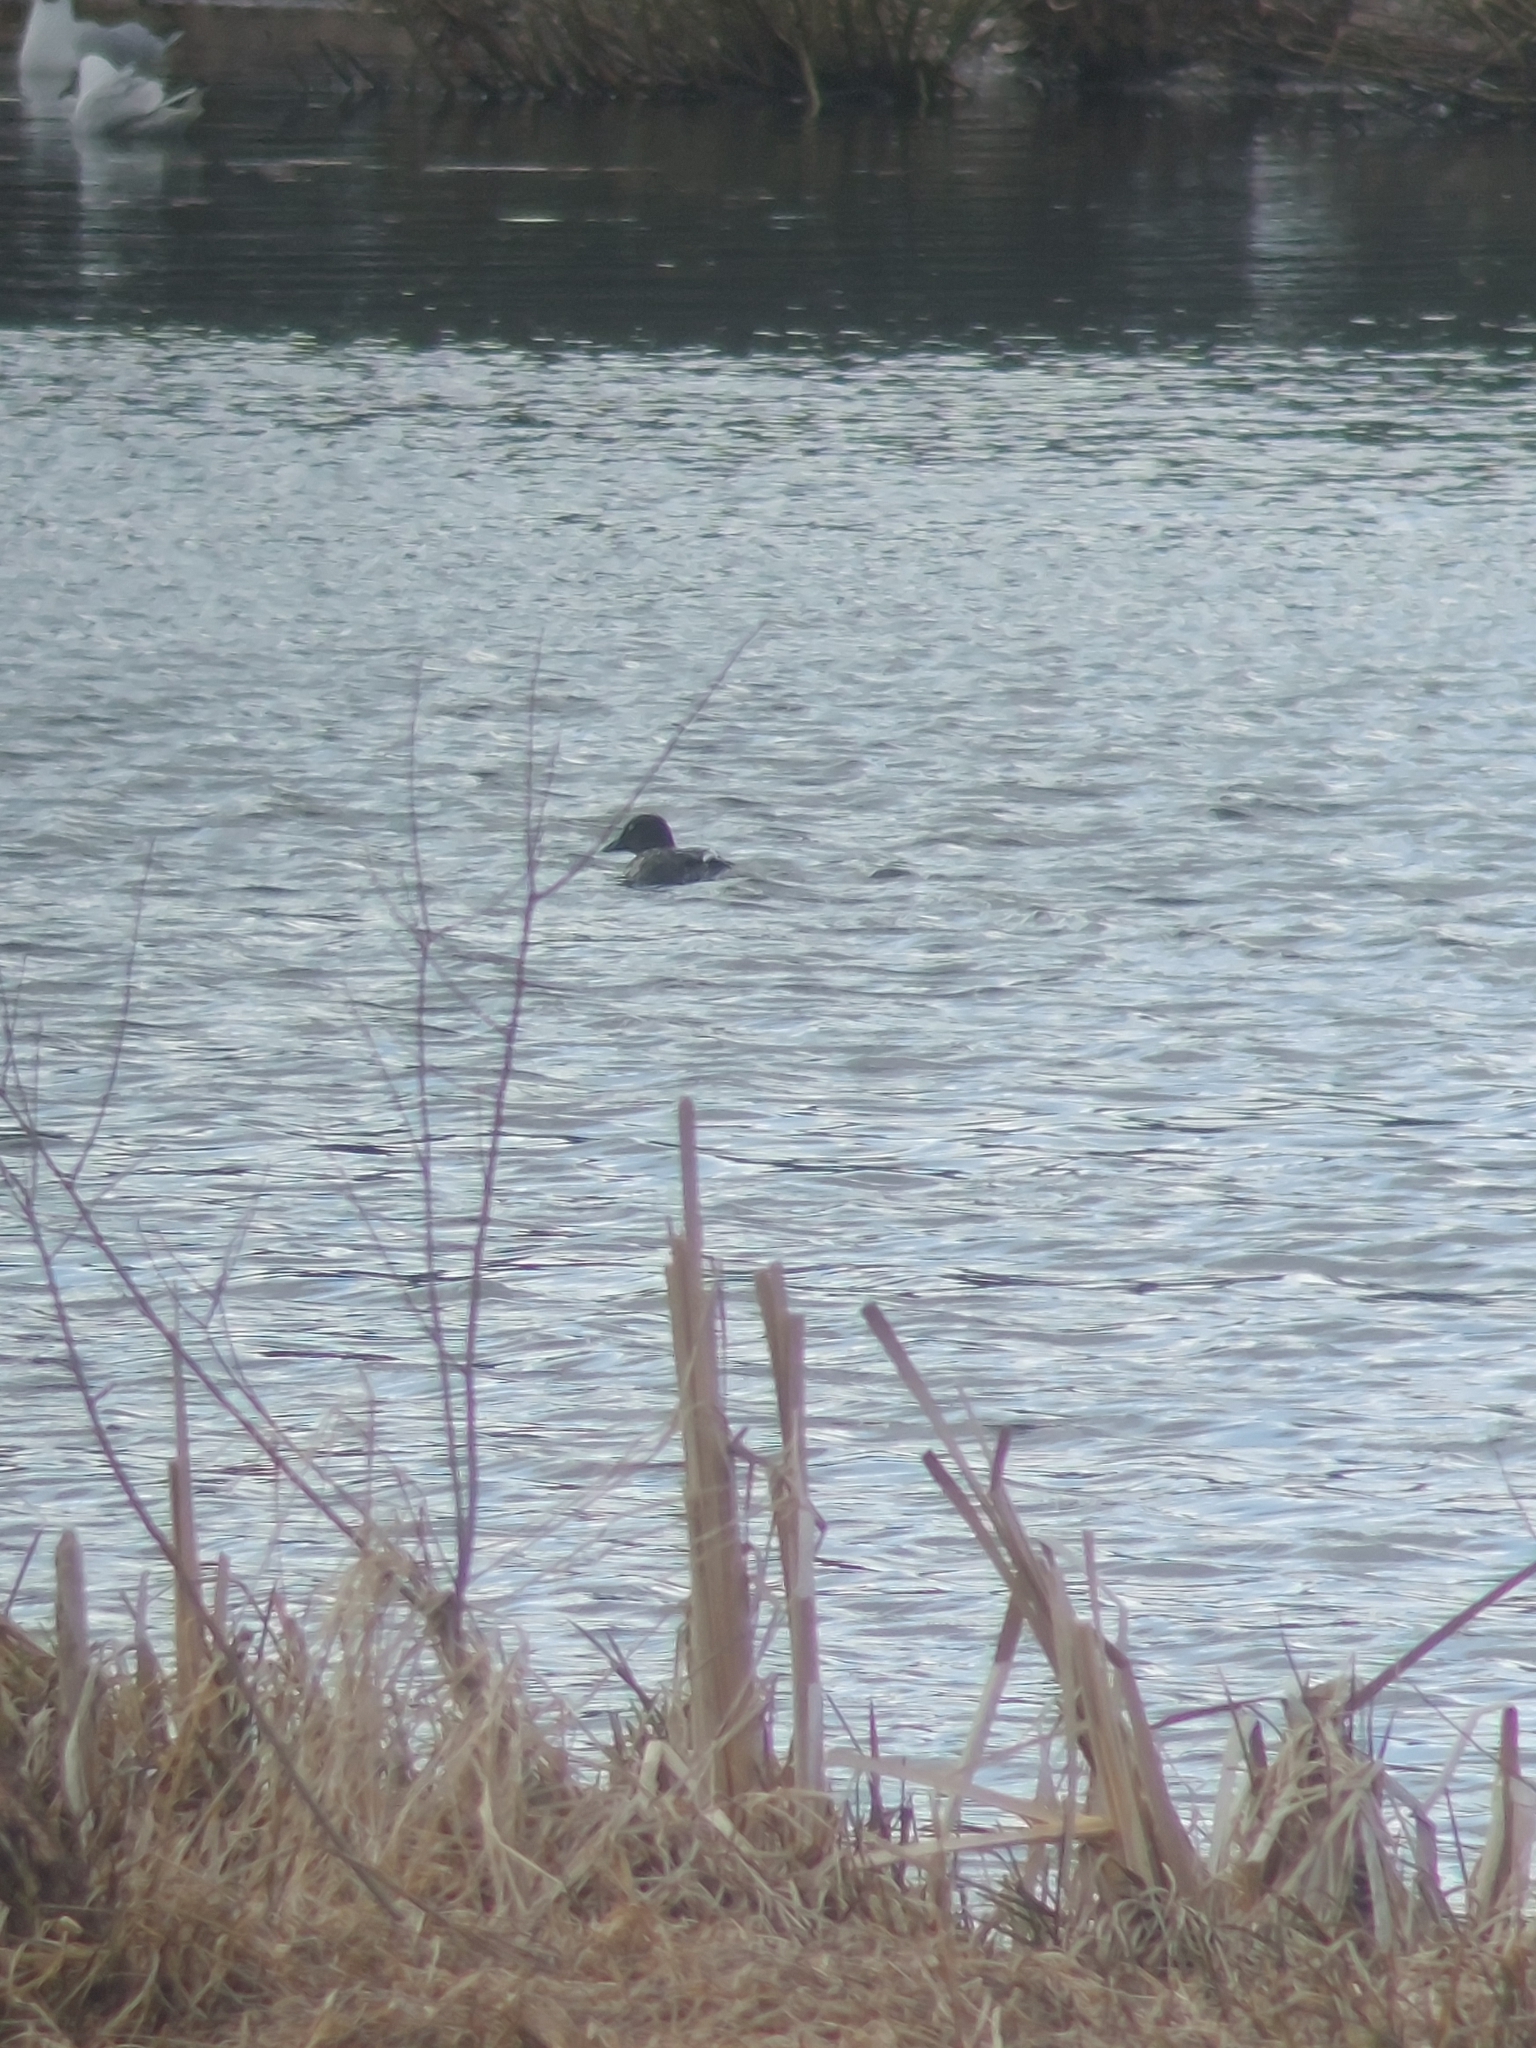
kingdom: Animalia
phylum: Chordata
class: Aves
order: Anseriformes
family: Anatidae
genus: Bucephala
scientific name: Bucephala clangula
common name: Common goldeneye
